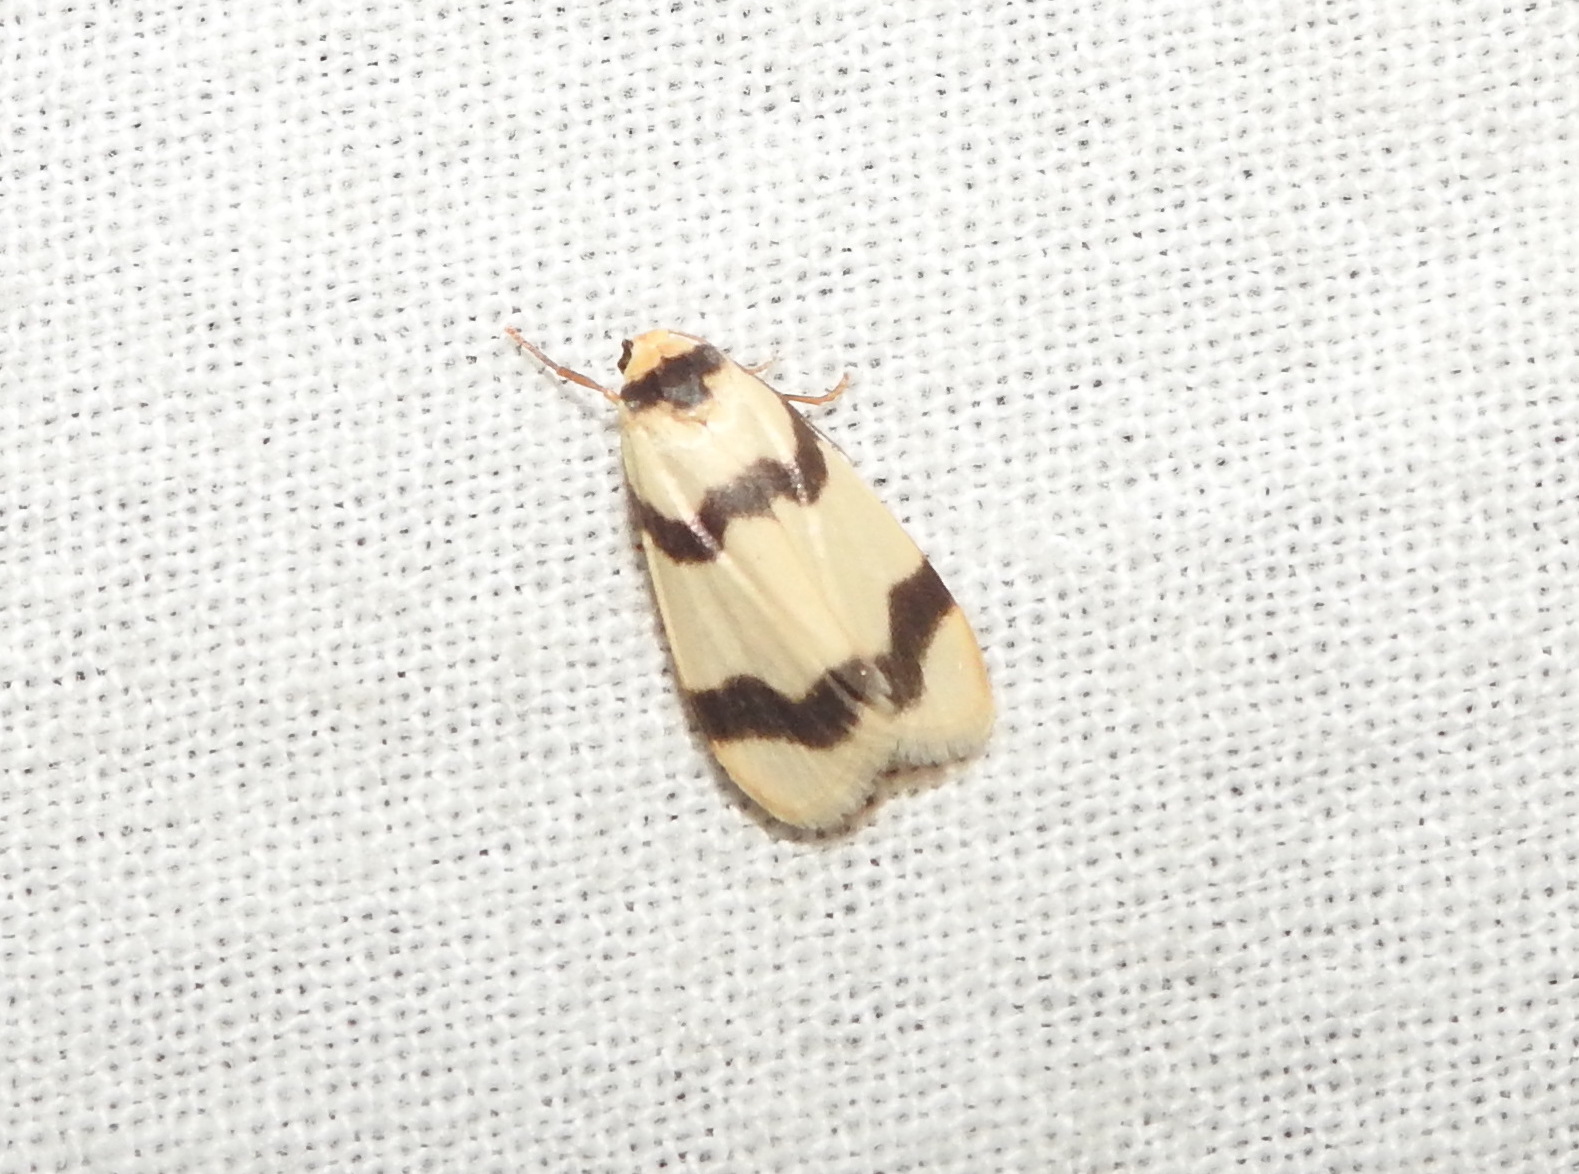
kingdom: Animalia
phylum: Arthropoda
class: Insecta
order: Lepidoptera
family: Erebidae
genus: Padenia
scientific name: Padenia transversa
